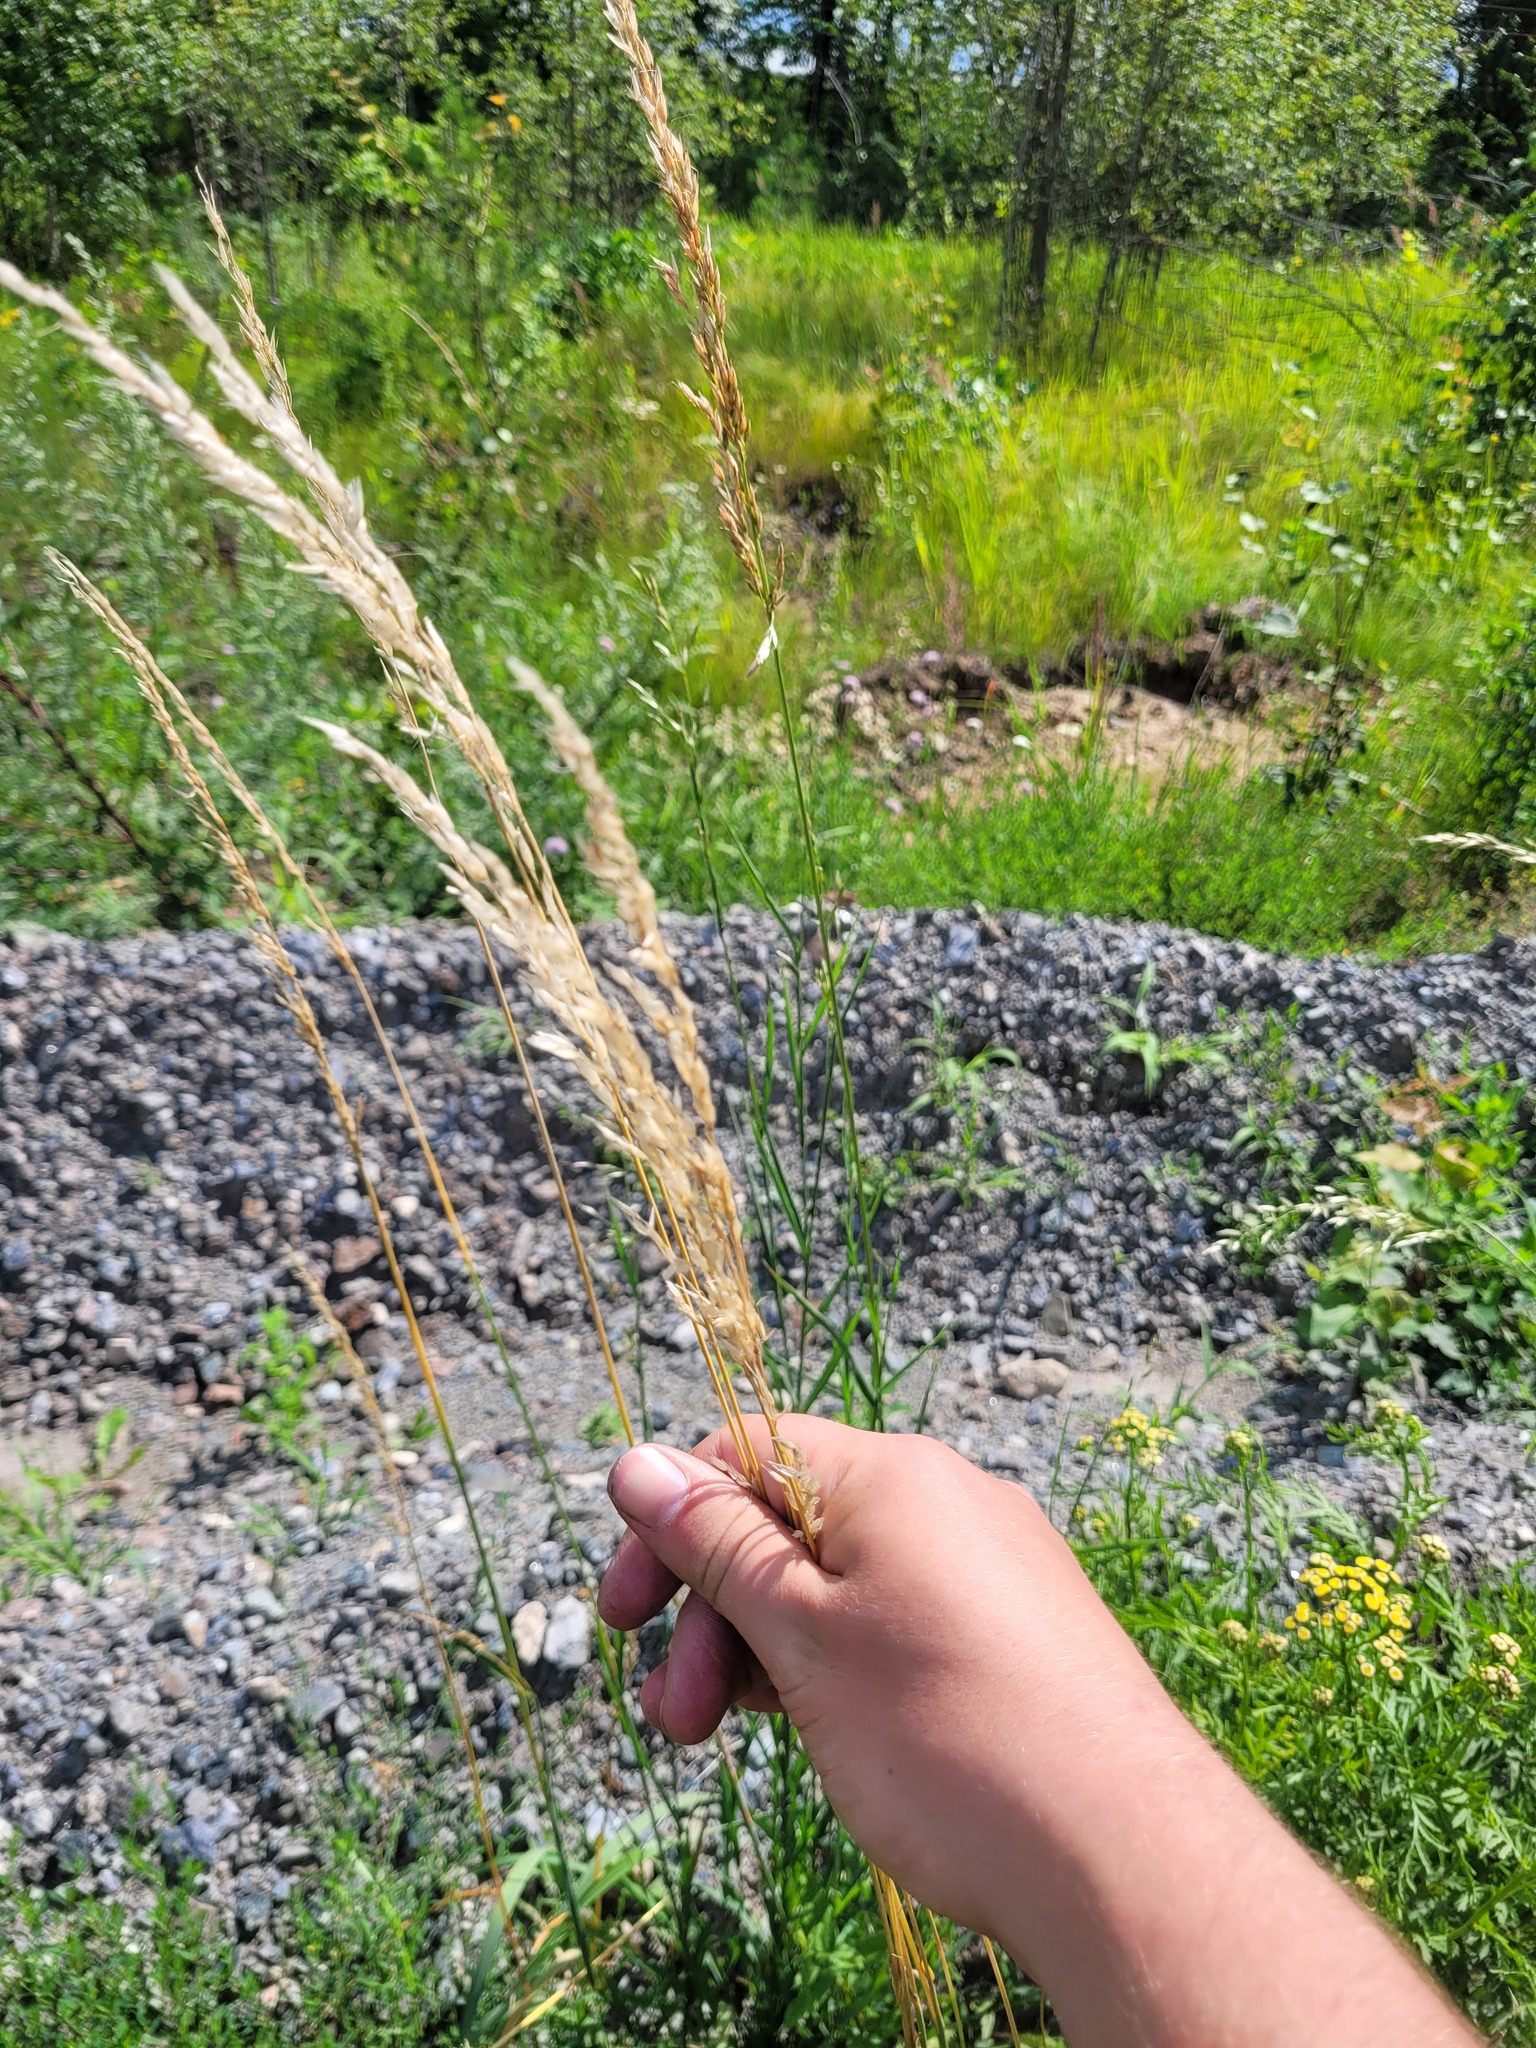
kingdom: Plantae
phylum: Tracheophyta
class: Liliopsida
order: Poales
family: Poaceae
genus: Arrhenatherum
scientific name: Arrhenatherum elatius
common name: Tall oatgrass
